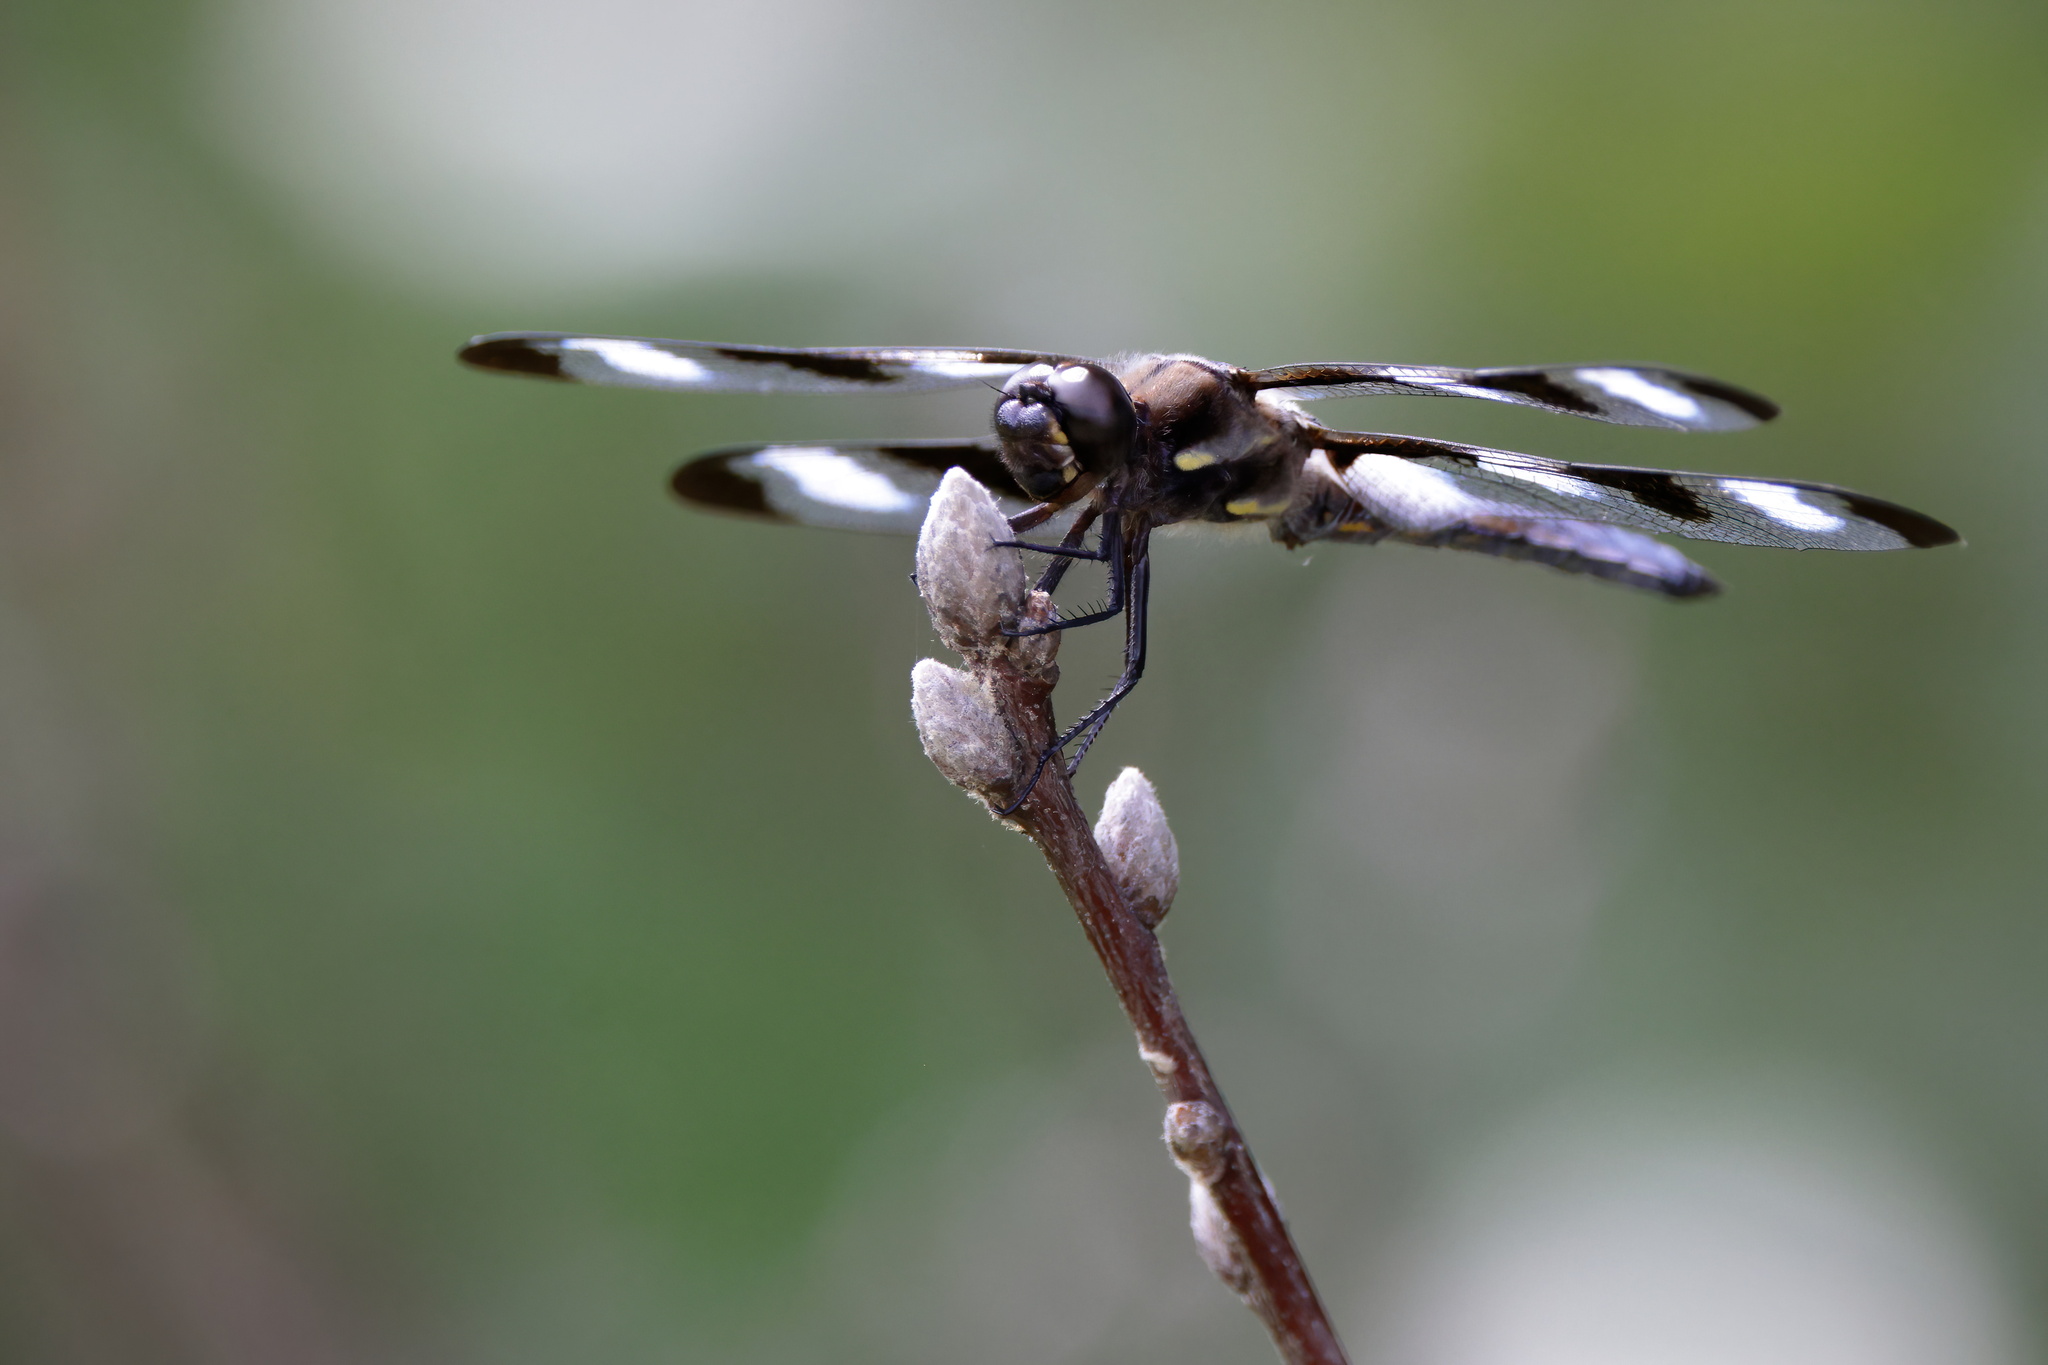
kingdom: Animalia
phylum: Arthropoda
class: Insecta
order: Odonata
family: Libellulidae
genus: Libellula
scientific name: Libellula pulchella
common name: Twelve-spotted skimmer
